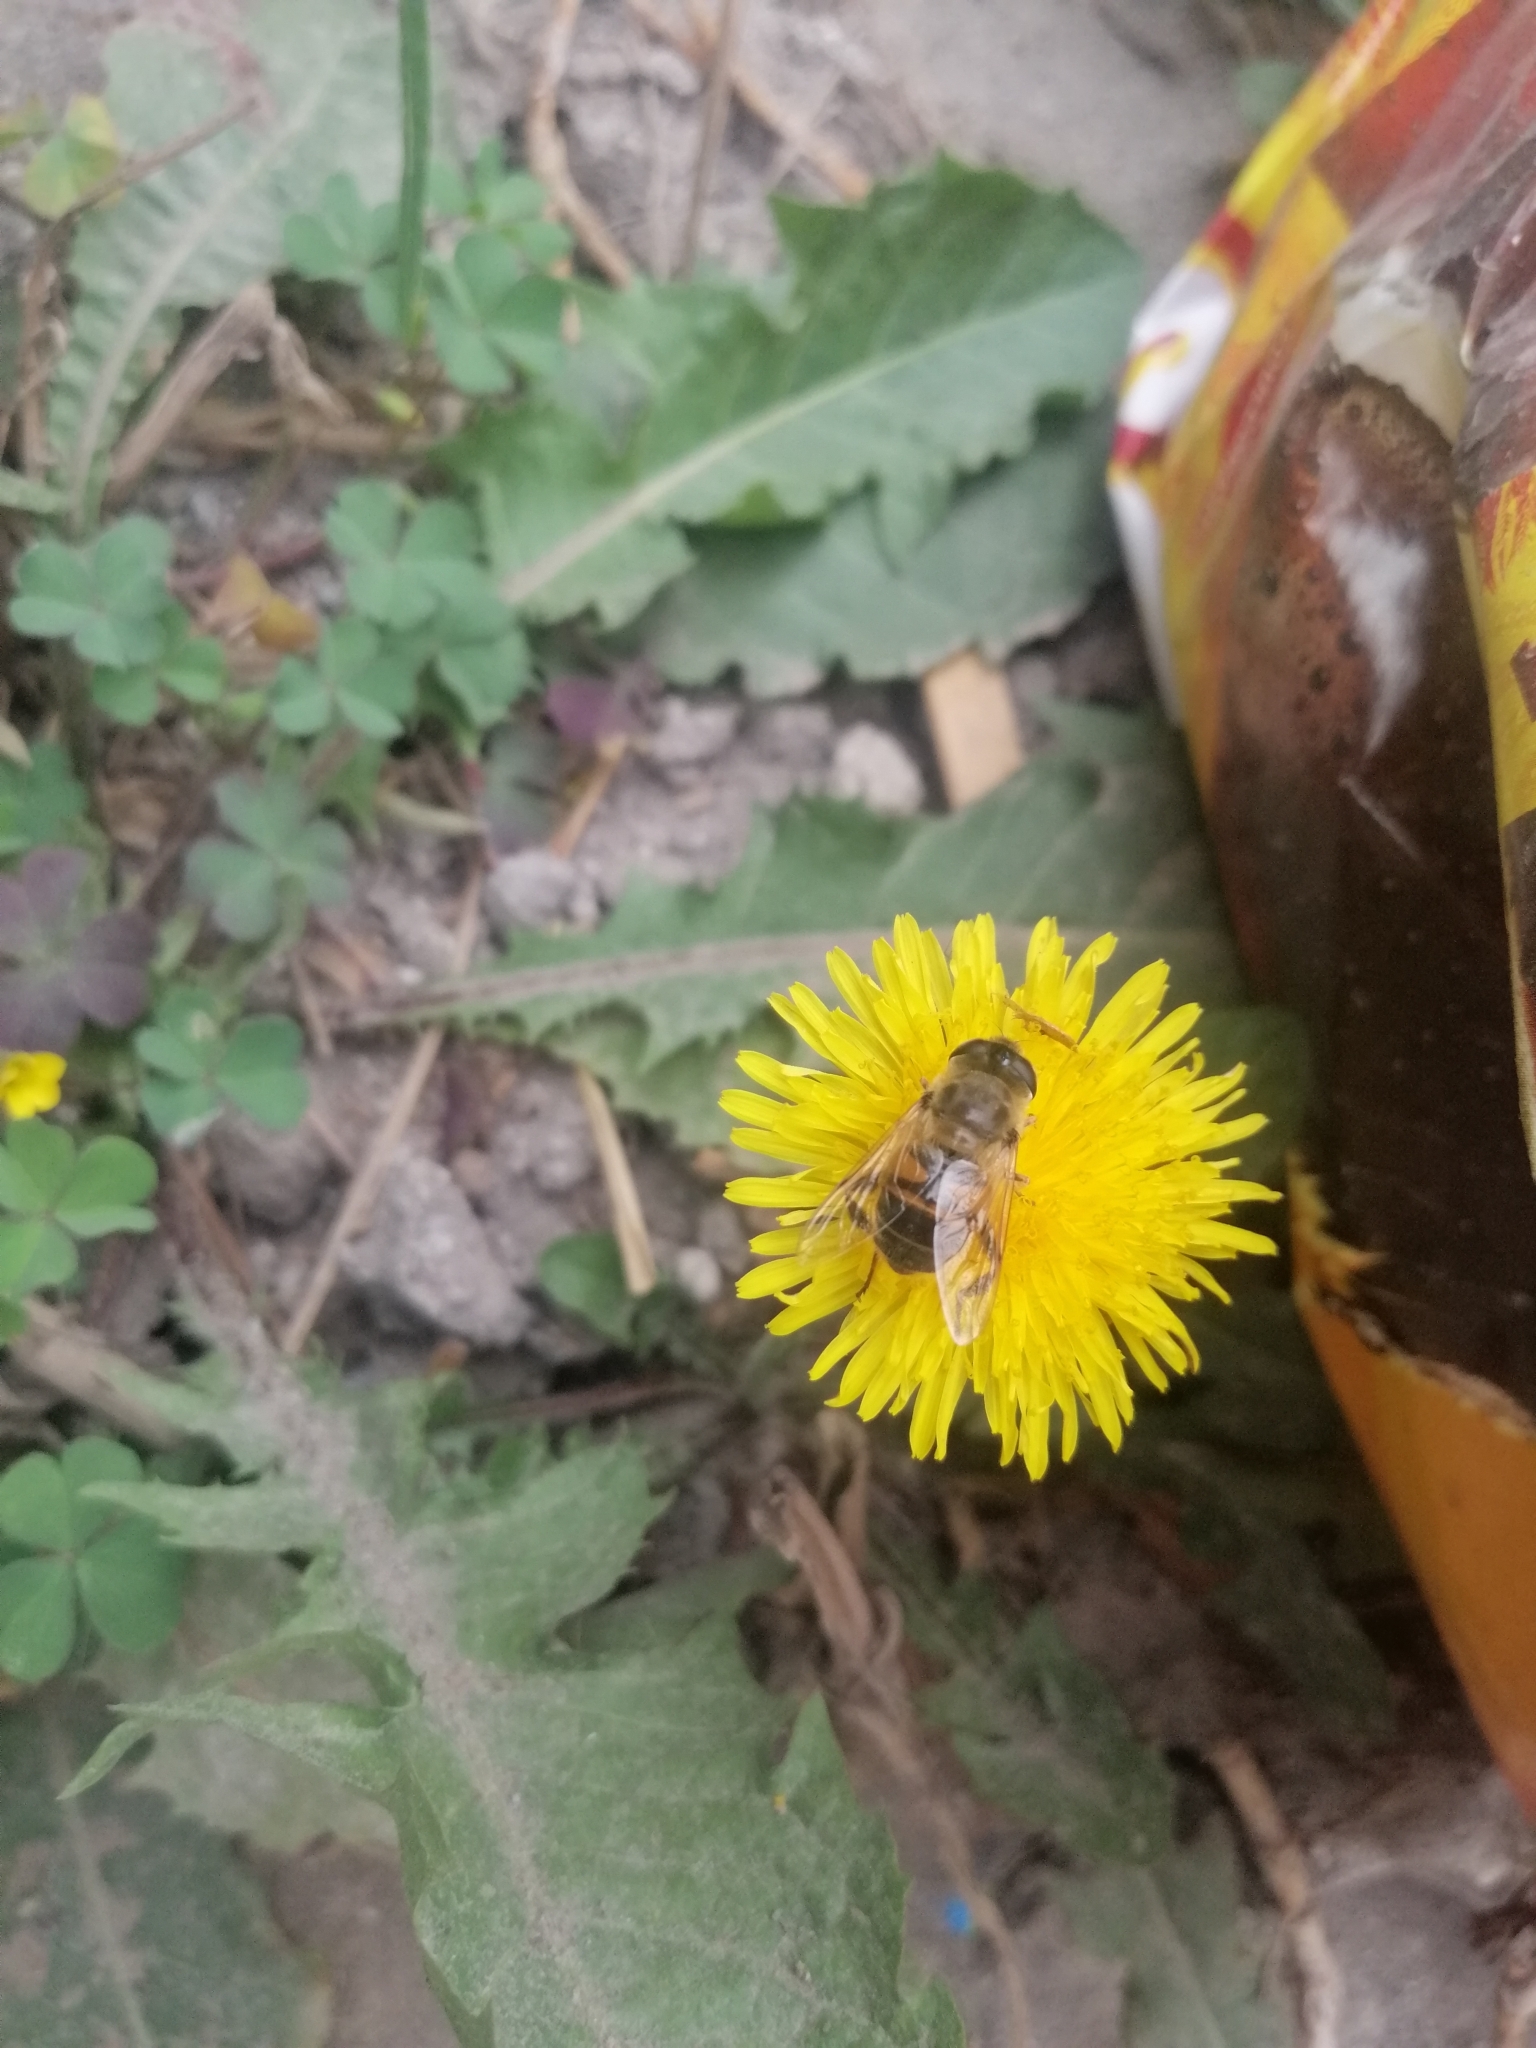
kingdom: Animalia
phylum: Arthropoda
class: Insecta
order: Diptera
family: Syrphidae
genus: Eristalis
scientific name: Eristalis tenax
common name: Drone fly
